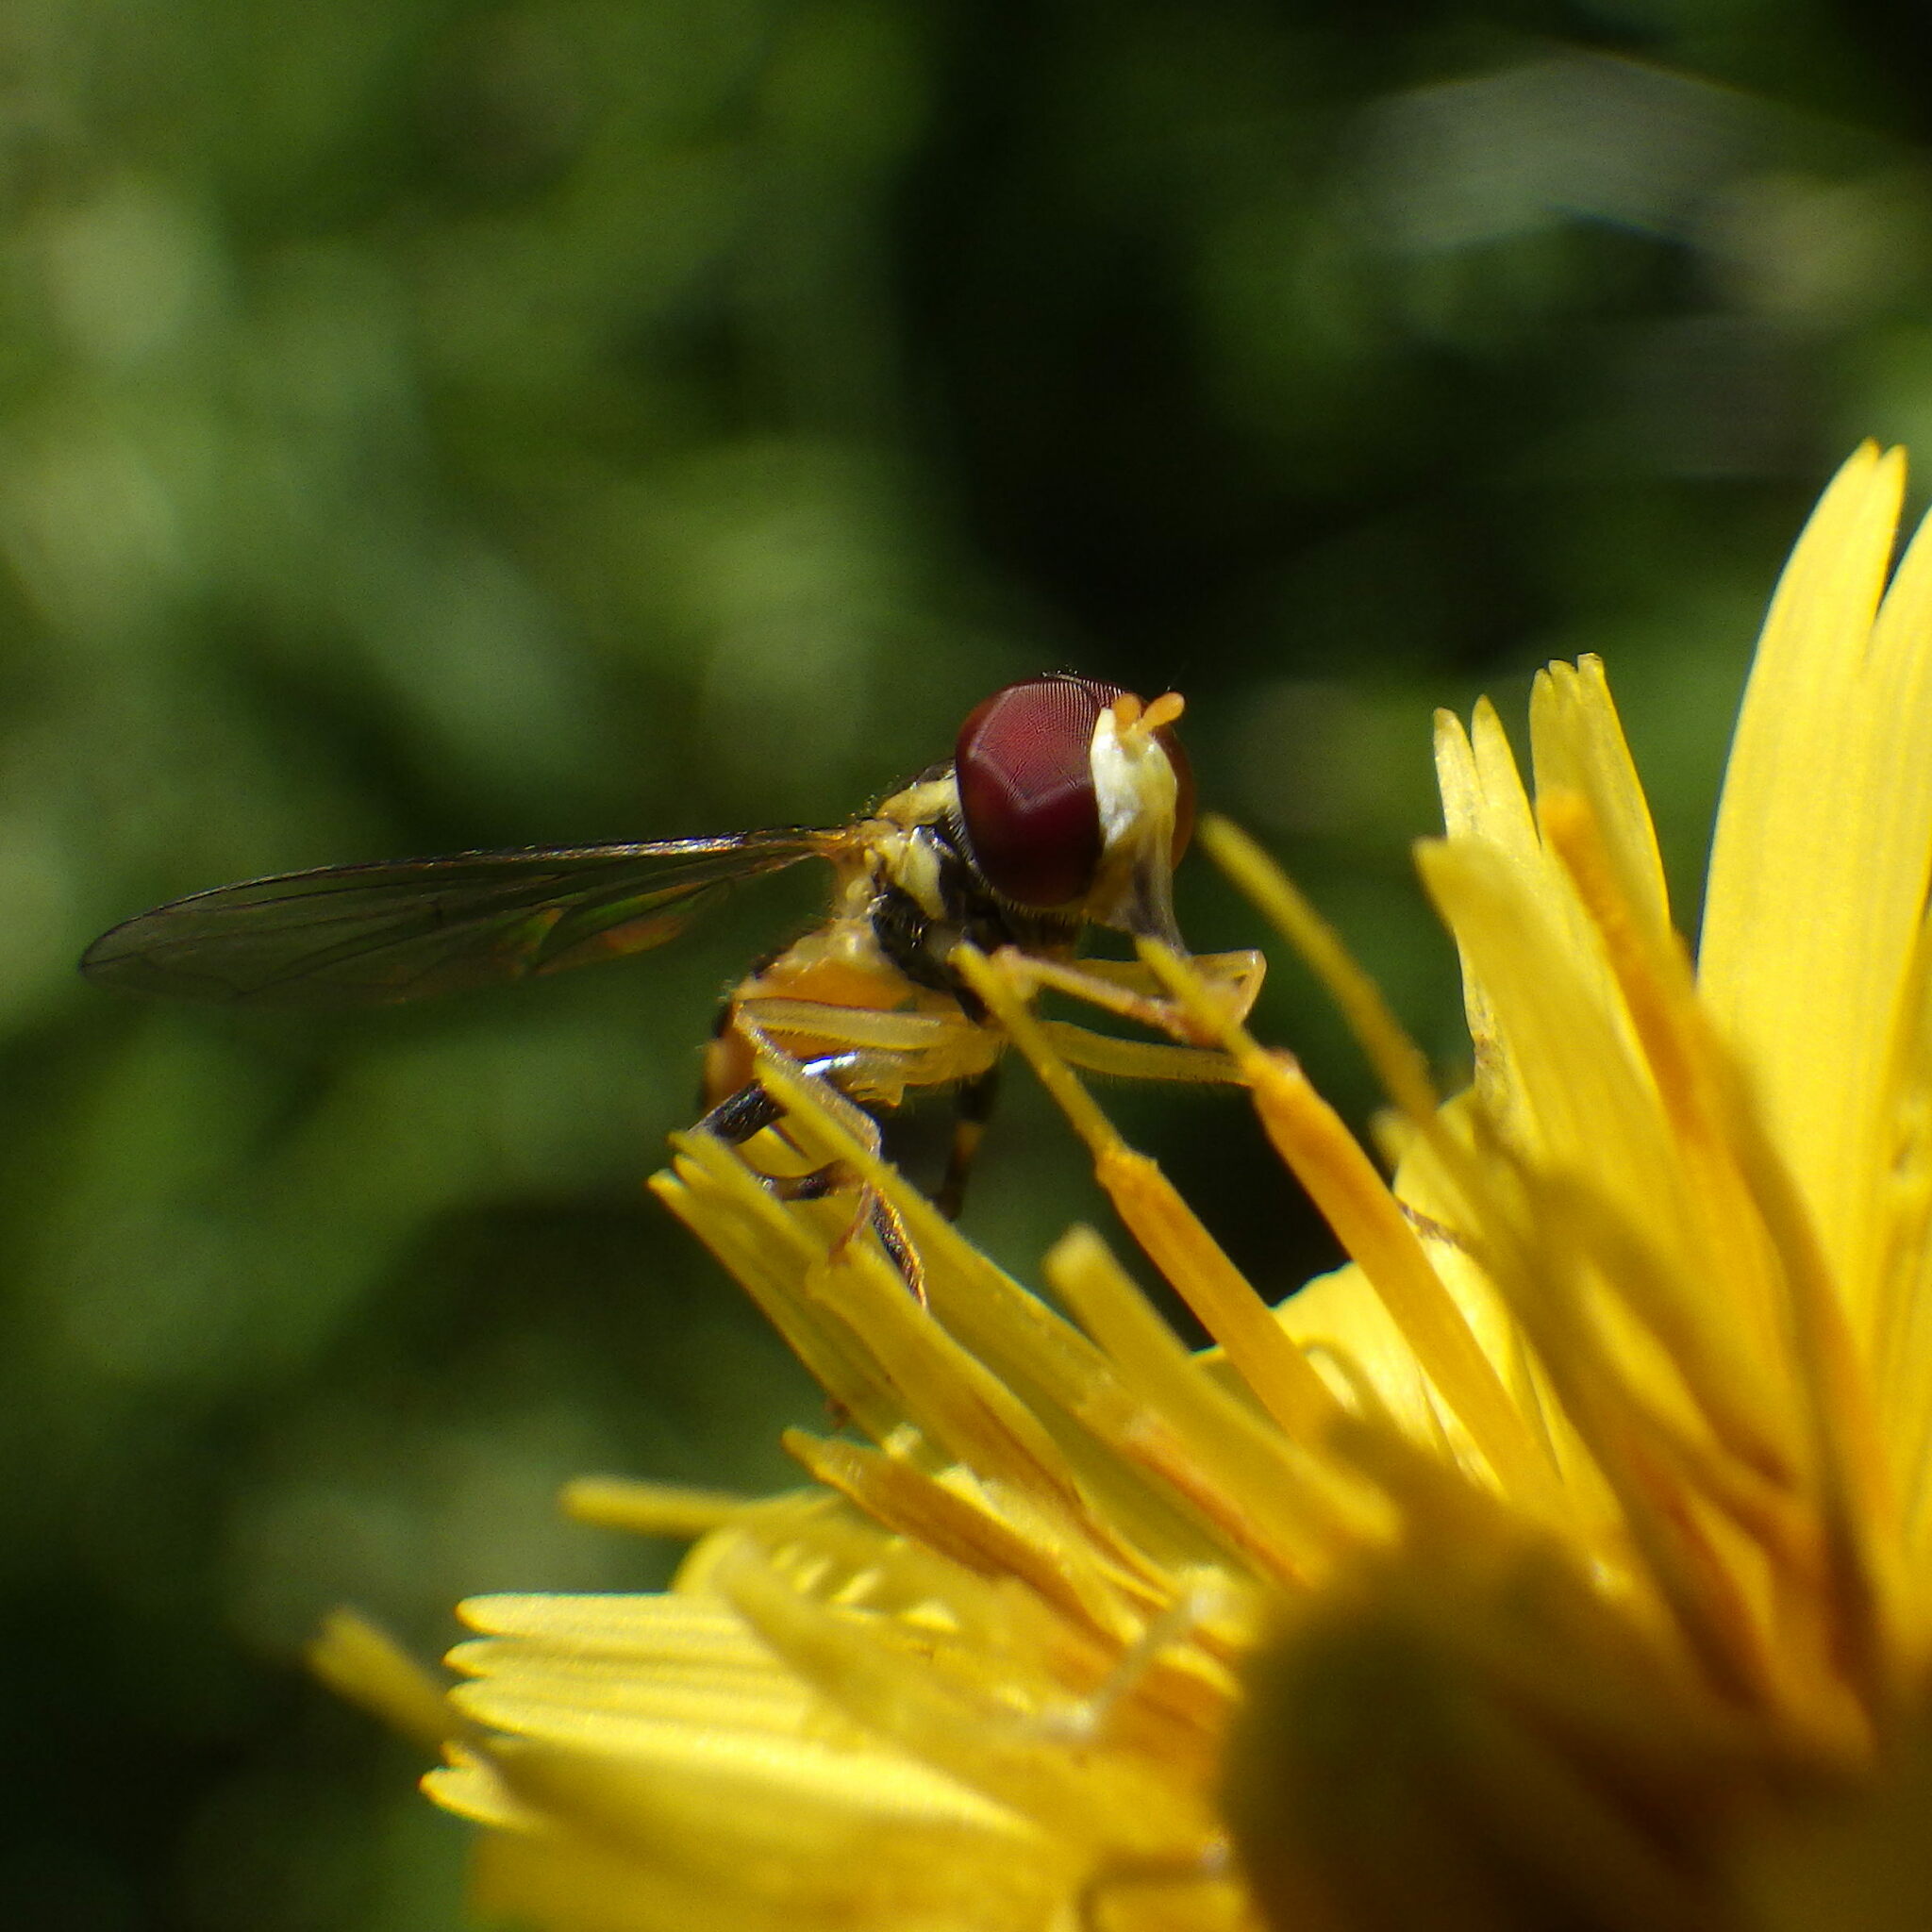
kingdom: Animalia
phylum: Arthropoda
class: Insecta
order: Diptera
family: Syrphidae
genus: Toxomerus
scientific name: Toxomerus geminatus
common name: Eastern calligrapher
